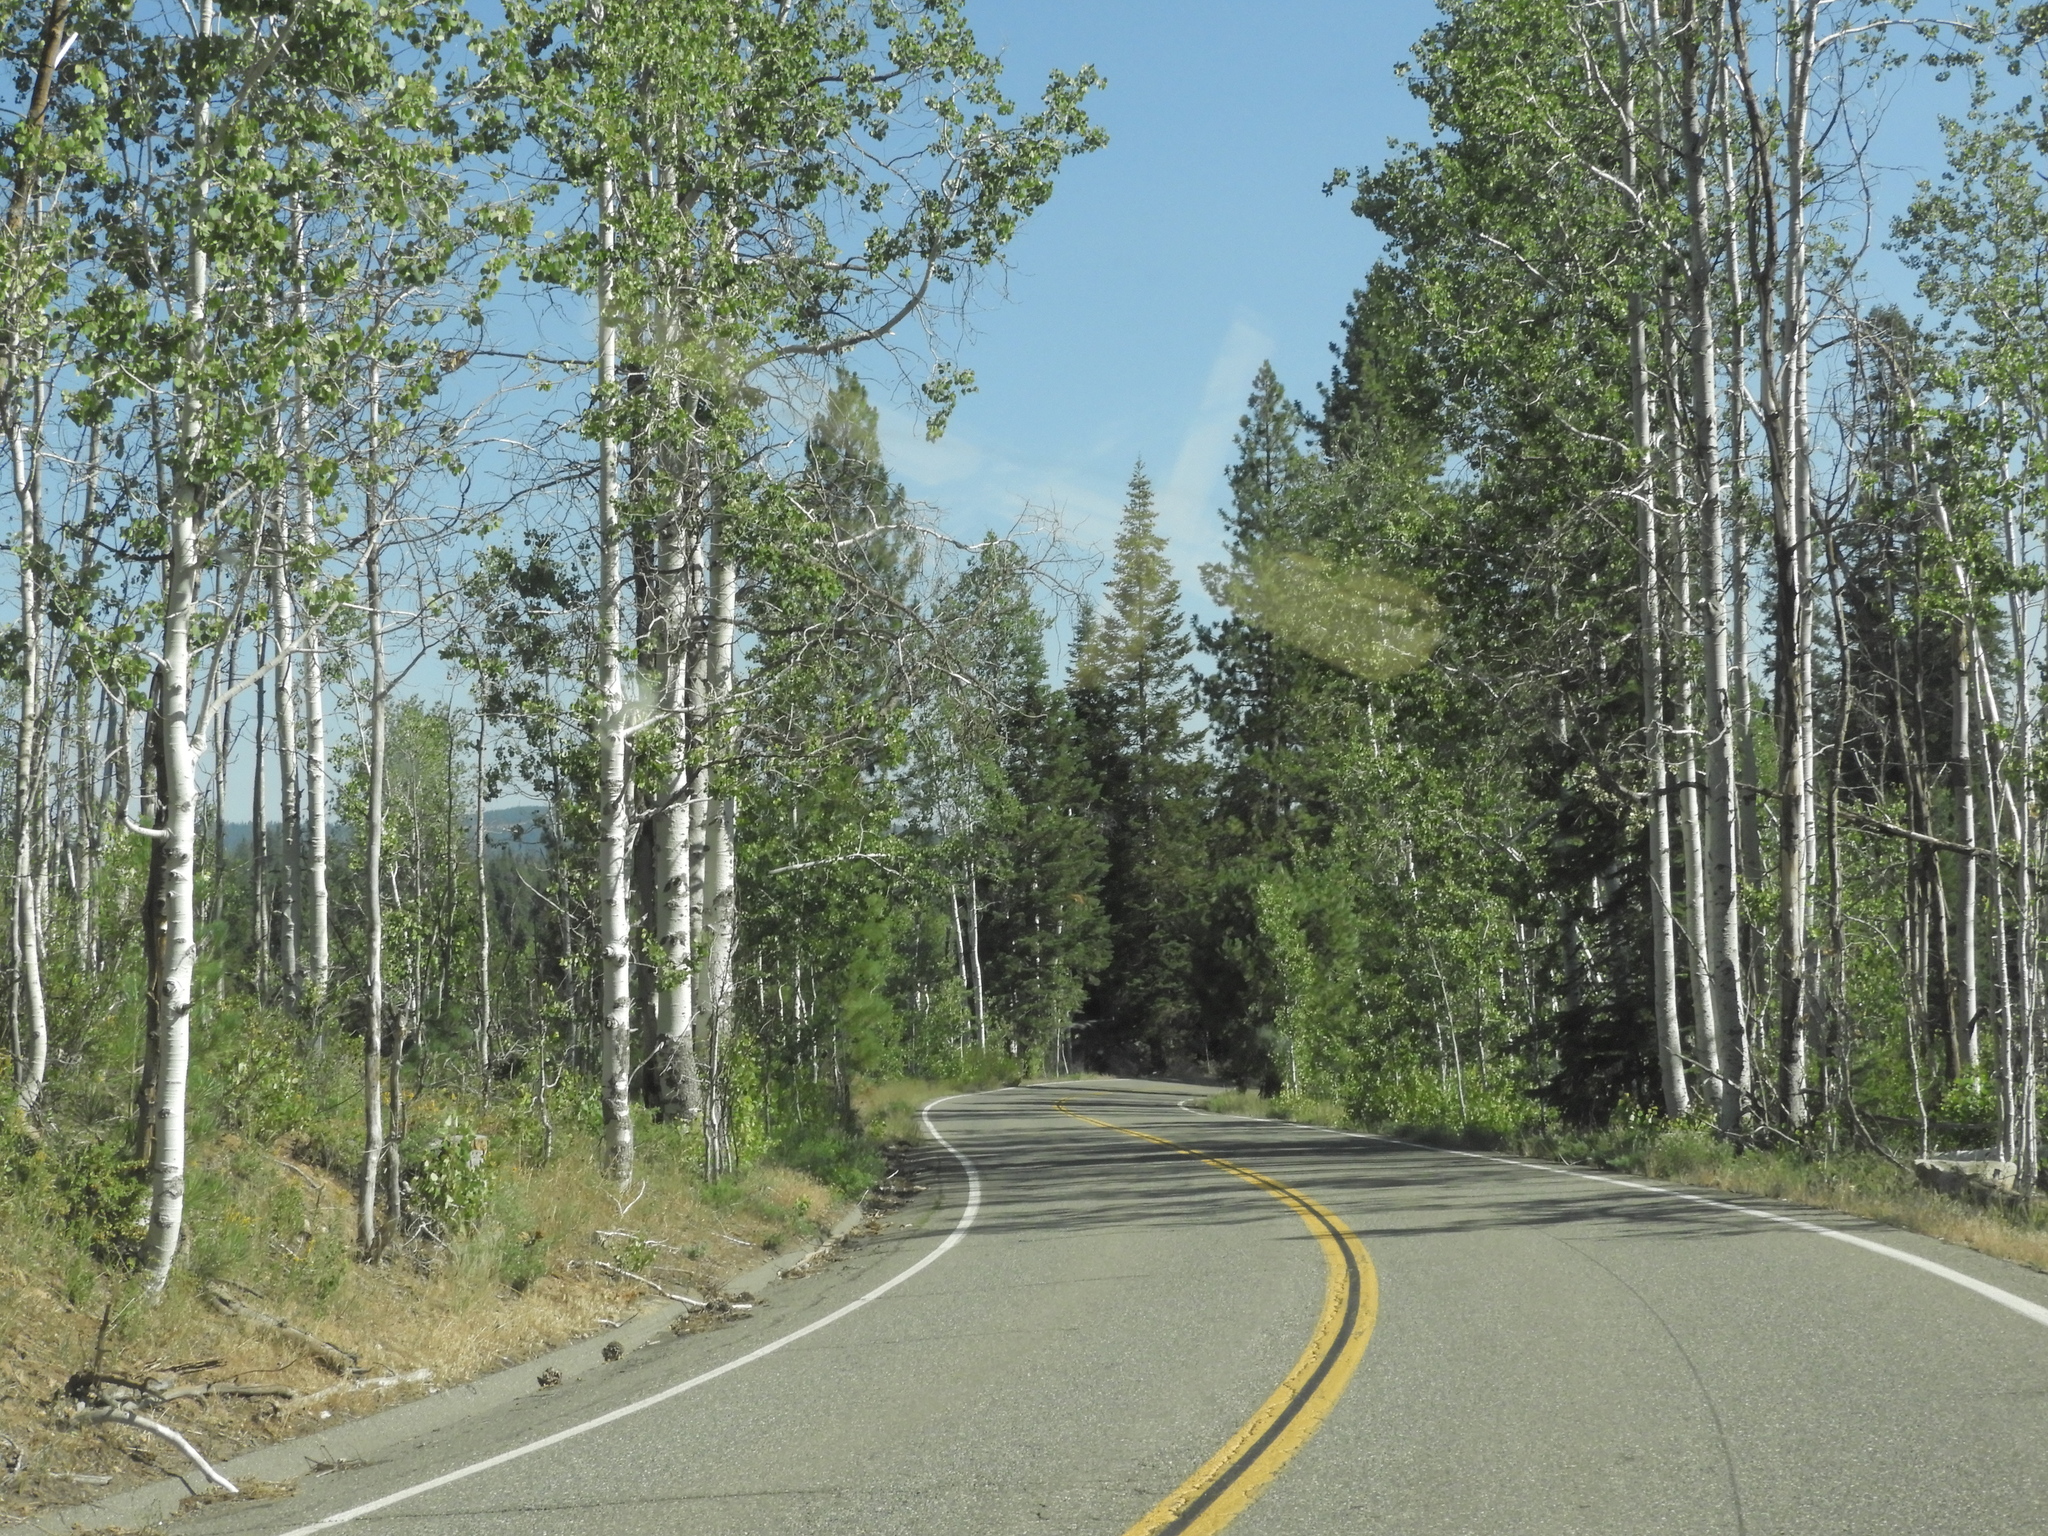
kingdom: Plantae
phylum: Tracheophyta
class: Magnoliopsida
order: Malpighiales
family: Salicaceae
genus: Populus
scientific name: Populus tremuloides
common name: Quaking aspen
